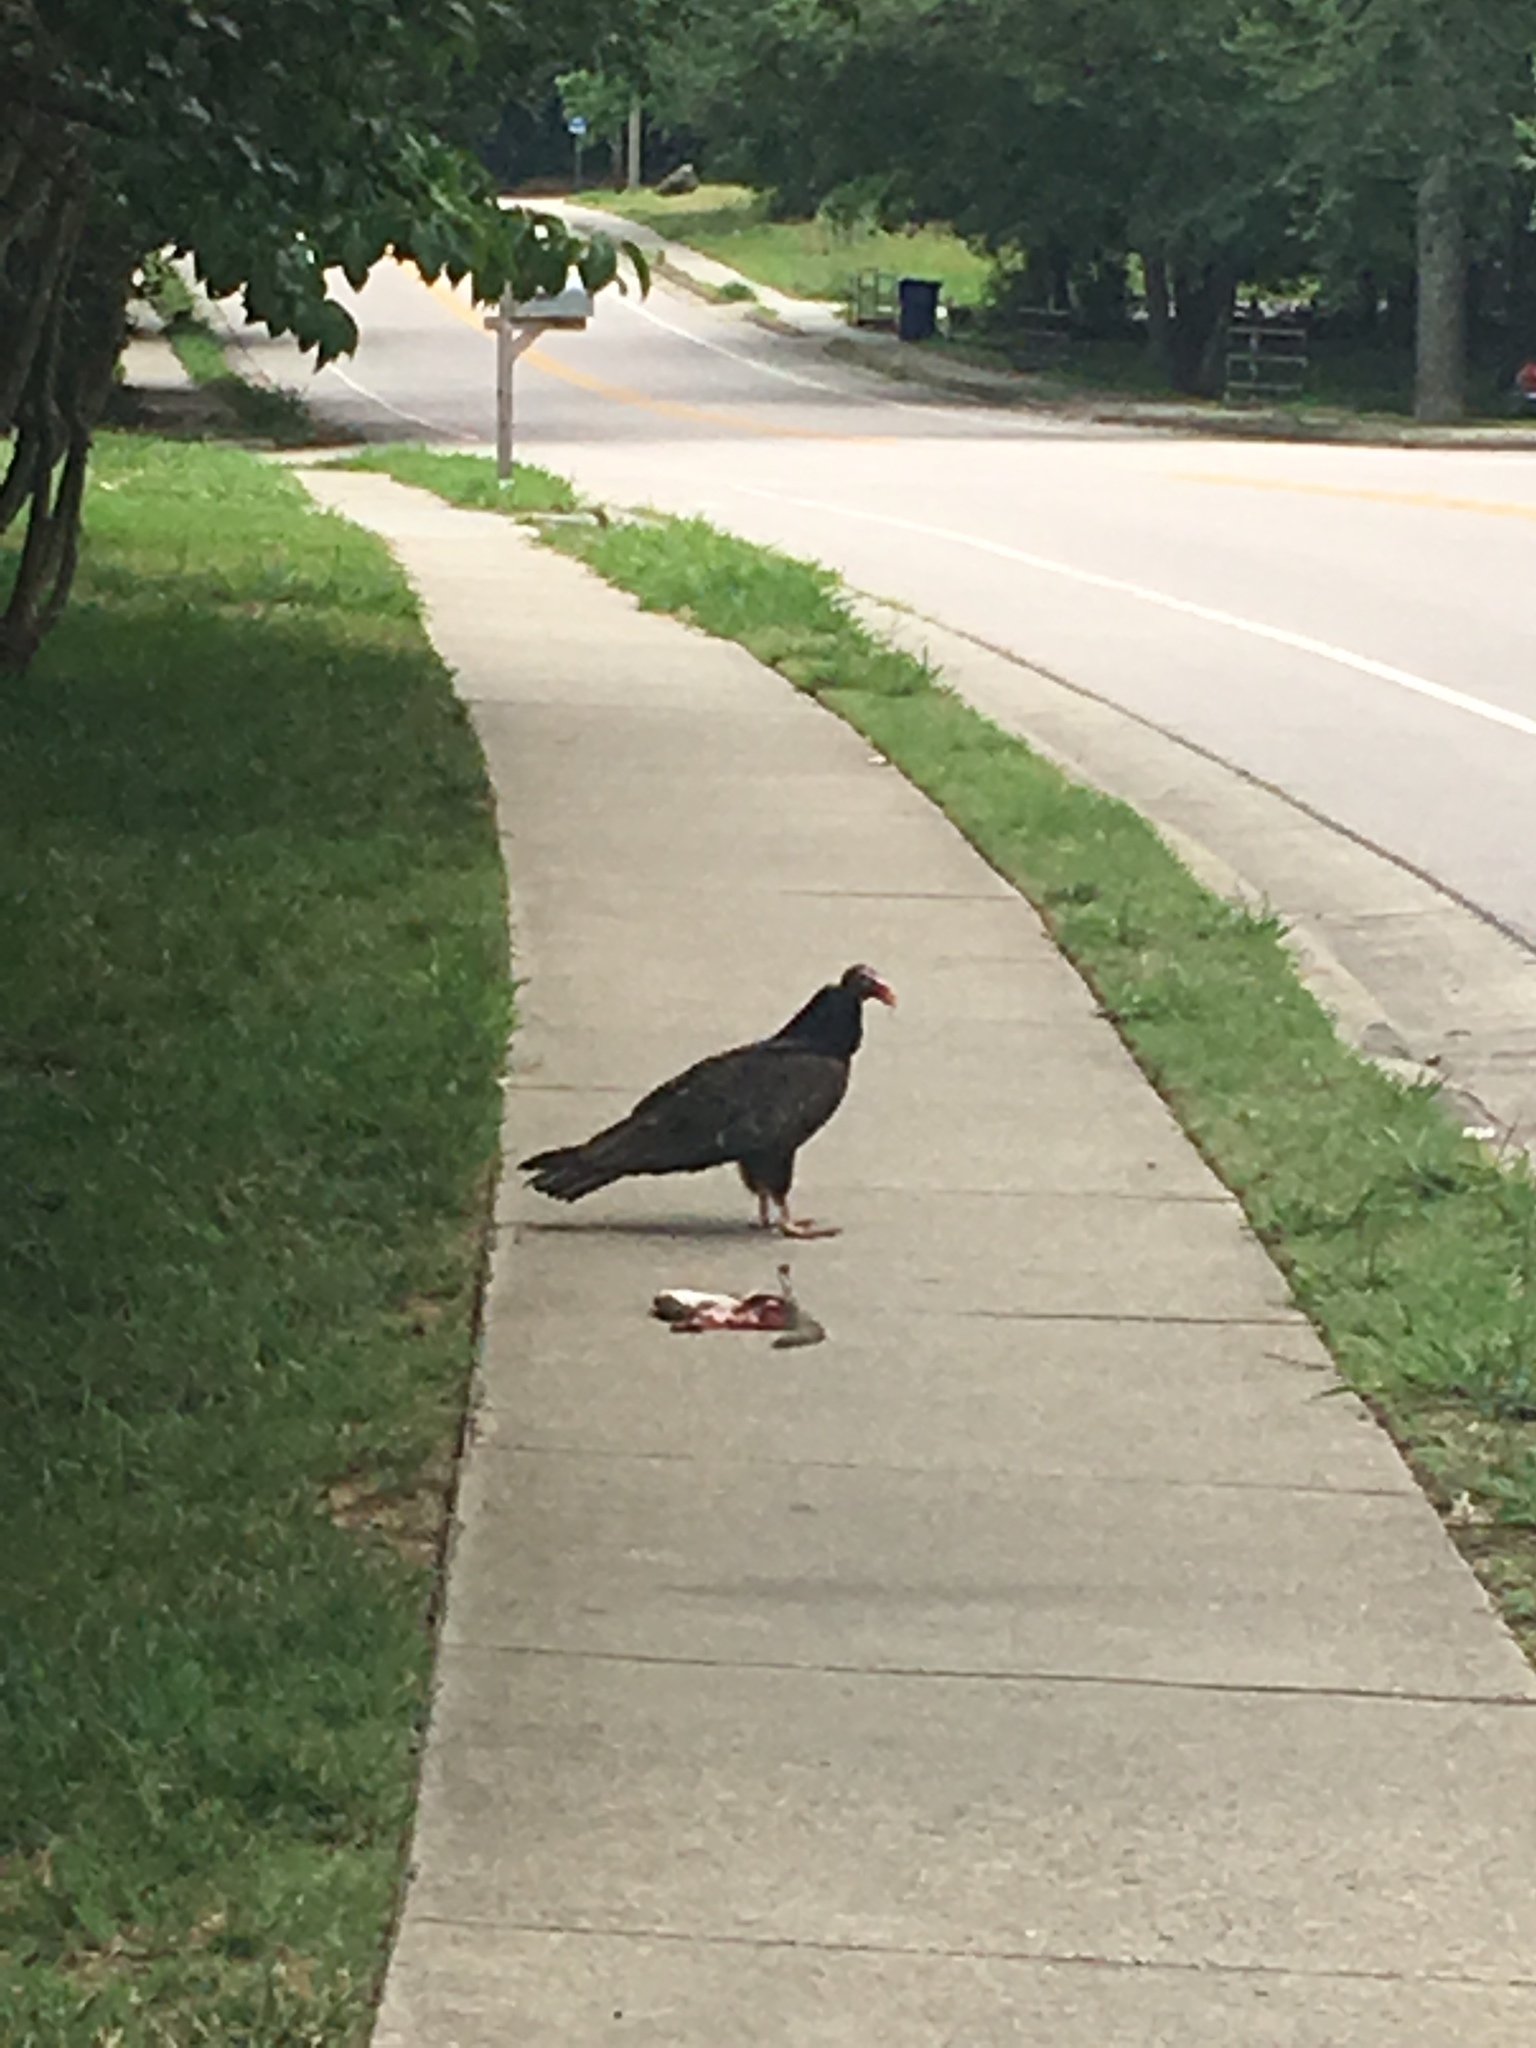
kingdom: Animalia
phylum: Chordata
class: Aves
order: Accipitriformes
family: Cathartidae
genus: Cathartes
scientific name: Cathartes aura
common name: Turkey vulture
